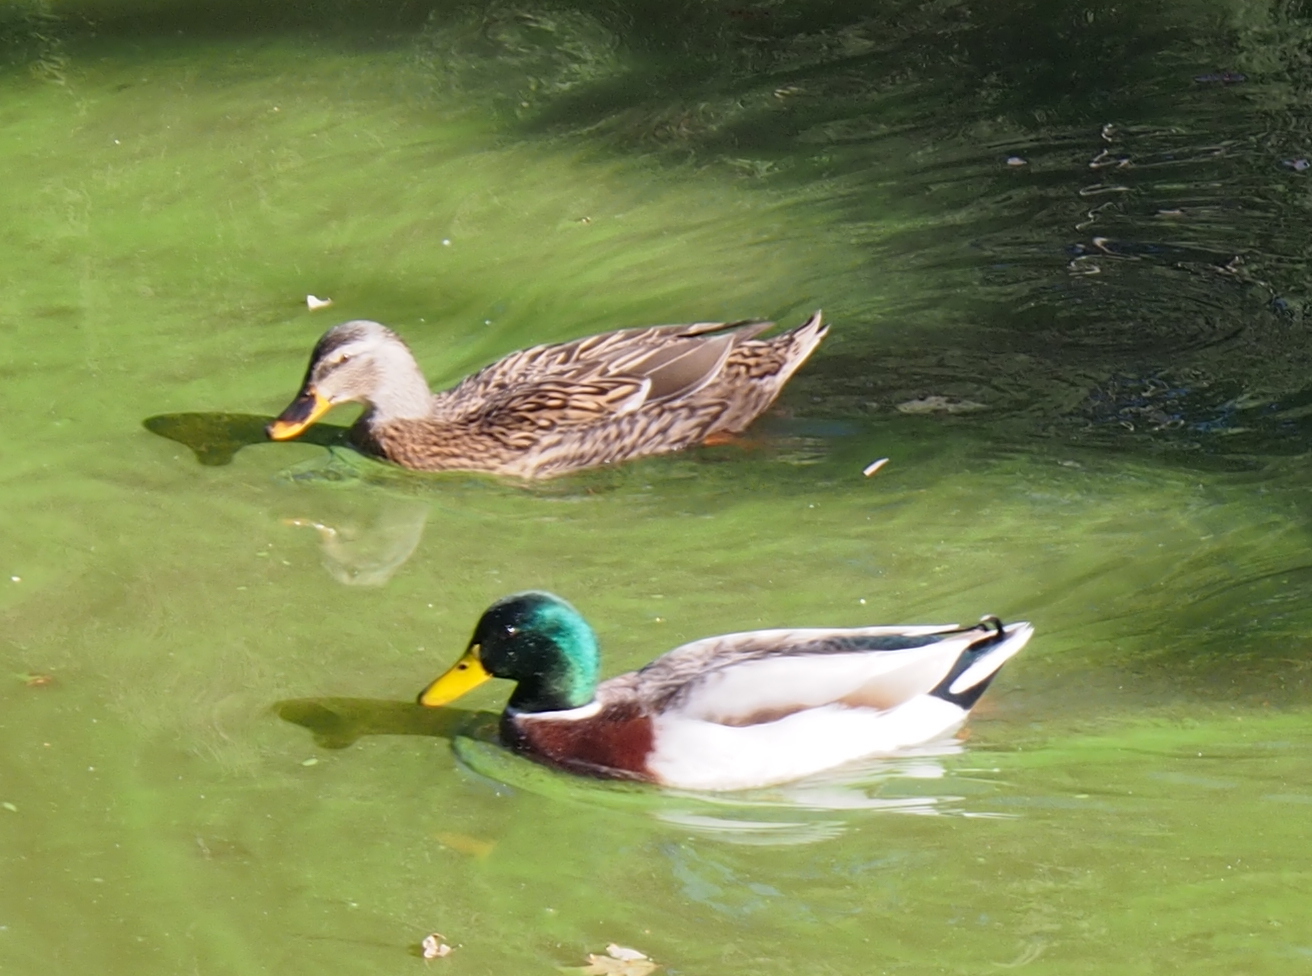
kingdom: Animalia
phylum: Chordata
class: Aves
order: Anseriformes
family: Anatidae
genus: Anas
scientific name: Anas platyrhynchos
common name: Mallard
